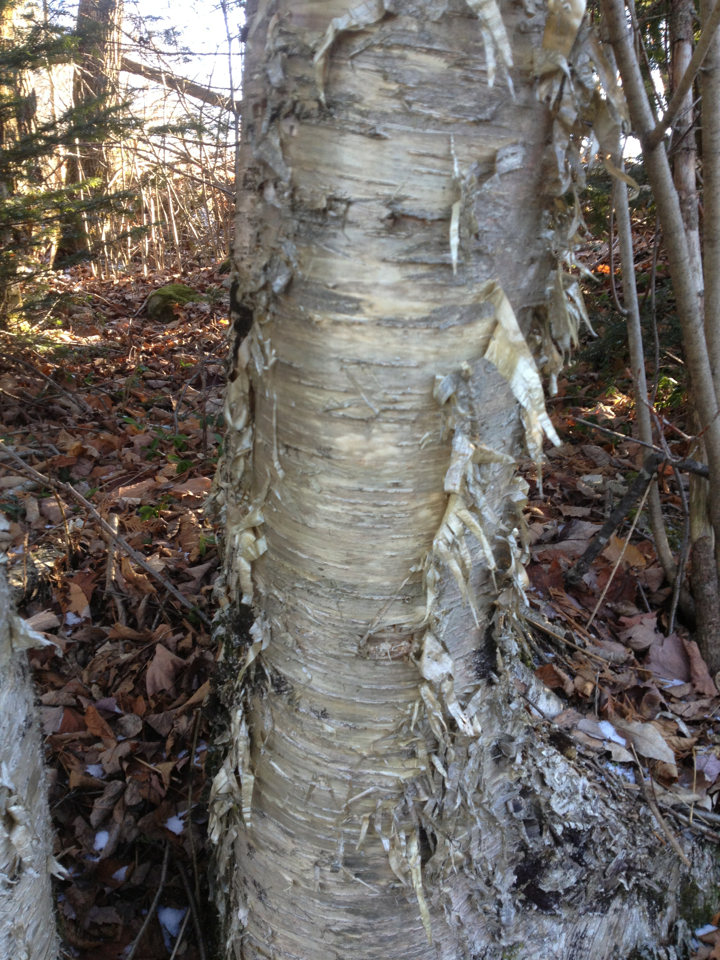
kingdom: Plantae
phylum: Tracheophyta
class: Magnoliopsida
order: Fagales
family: Betulaceae
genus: Betula
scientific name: Betula alleghaniensis
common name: Yellow birch
